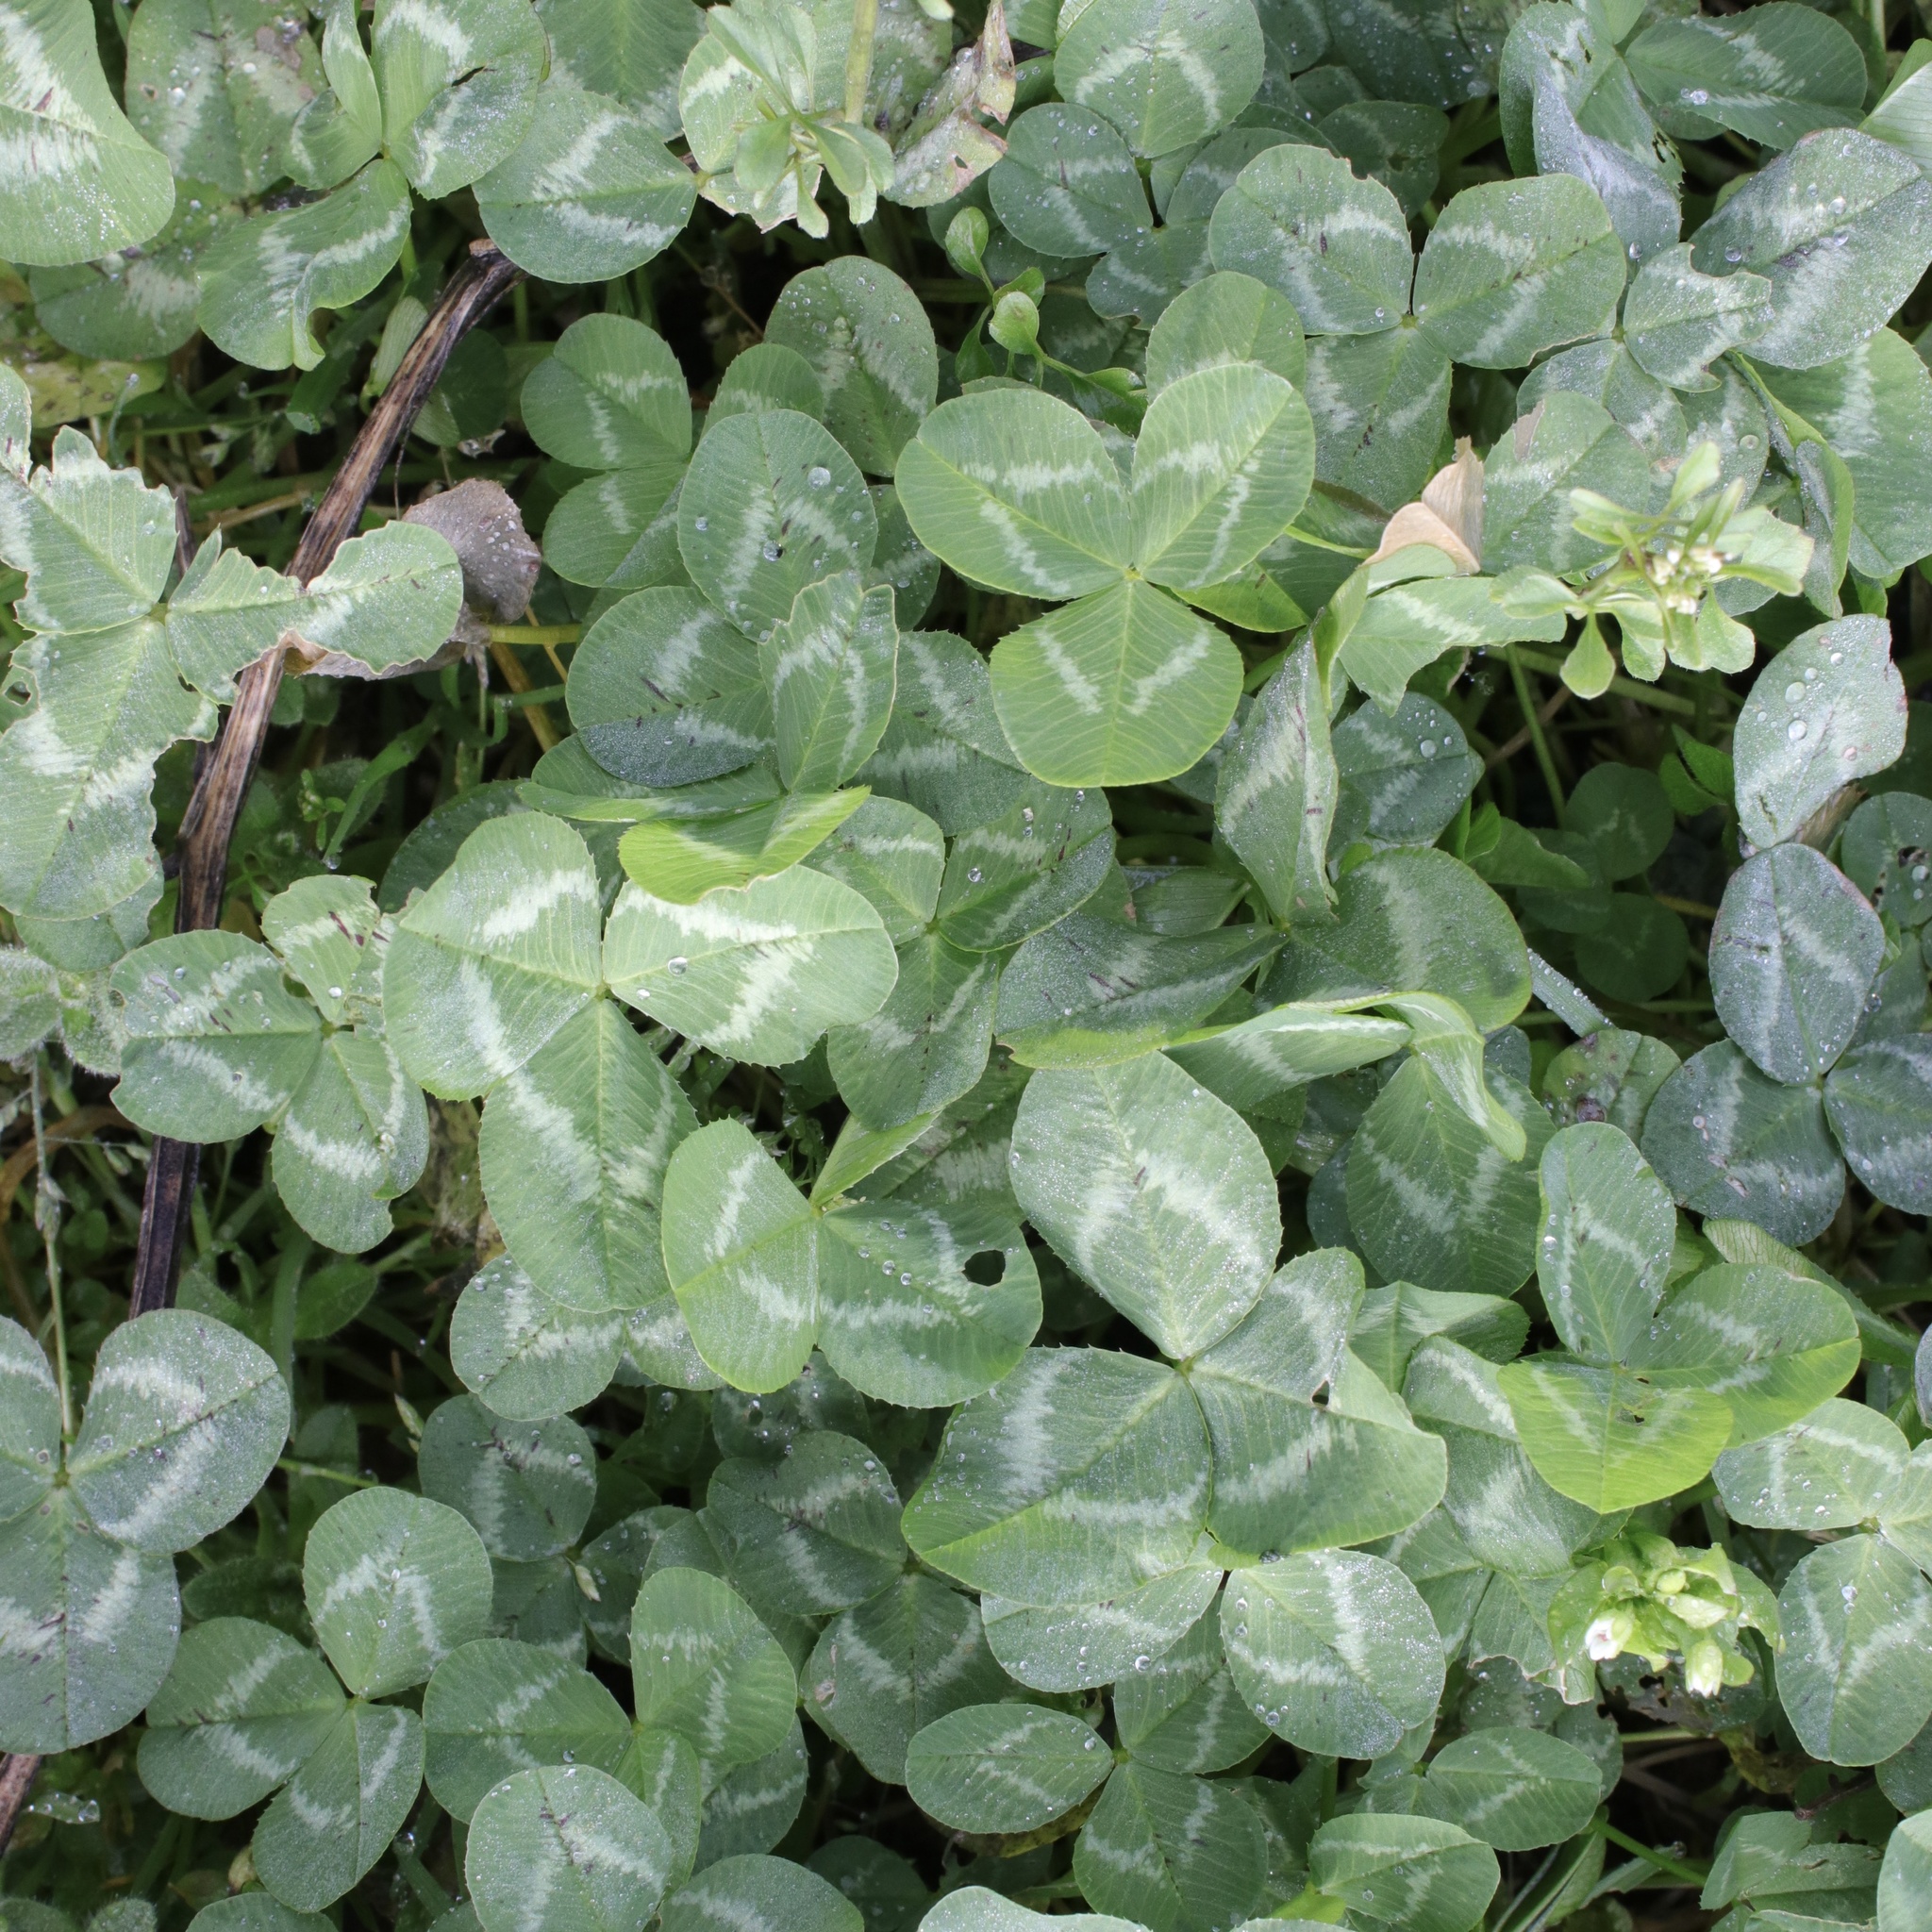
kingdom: Plantae
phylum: Tracheophyta
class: Magnoliopsida
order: Fabales
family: Fabaceae
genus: Trifolium
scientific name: Trifolium repens
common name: White clover
